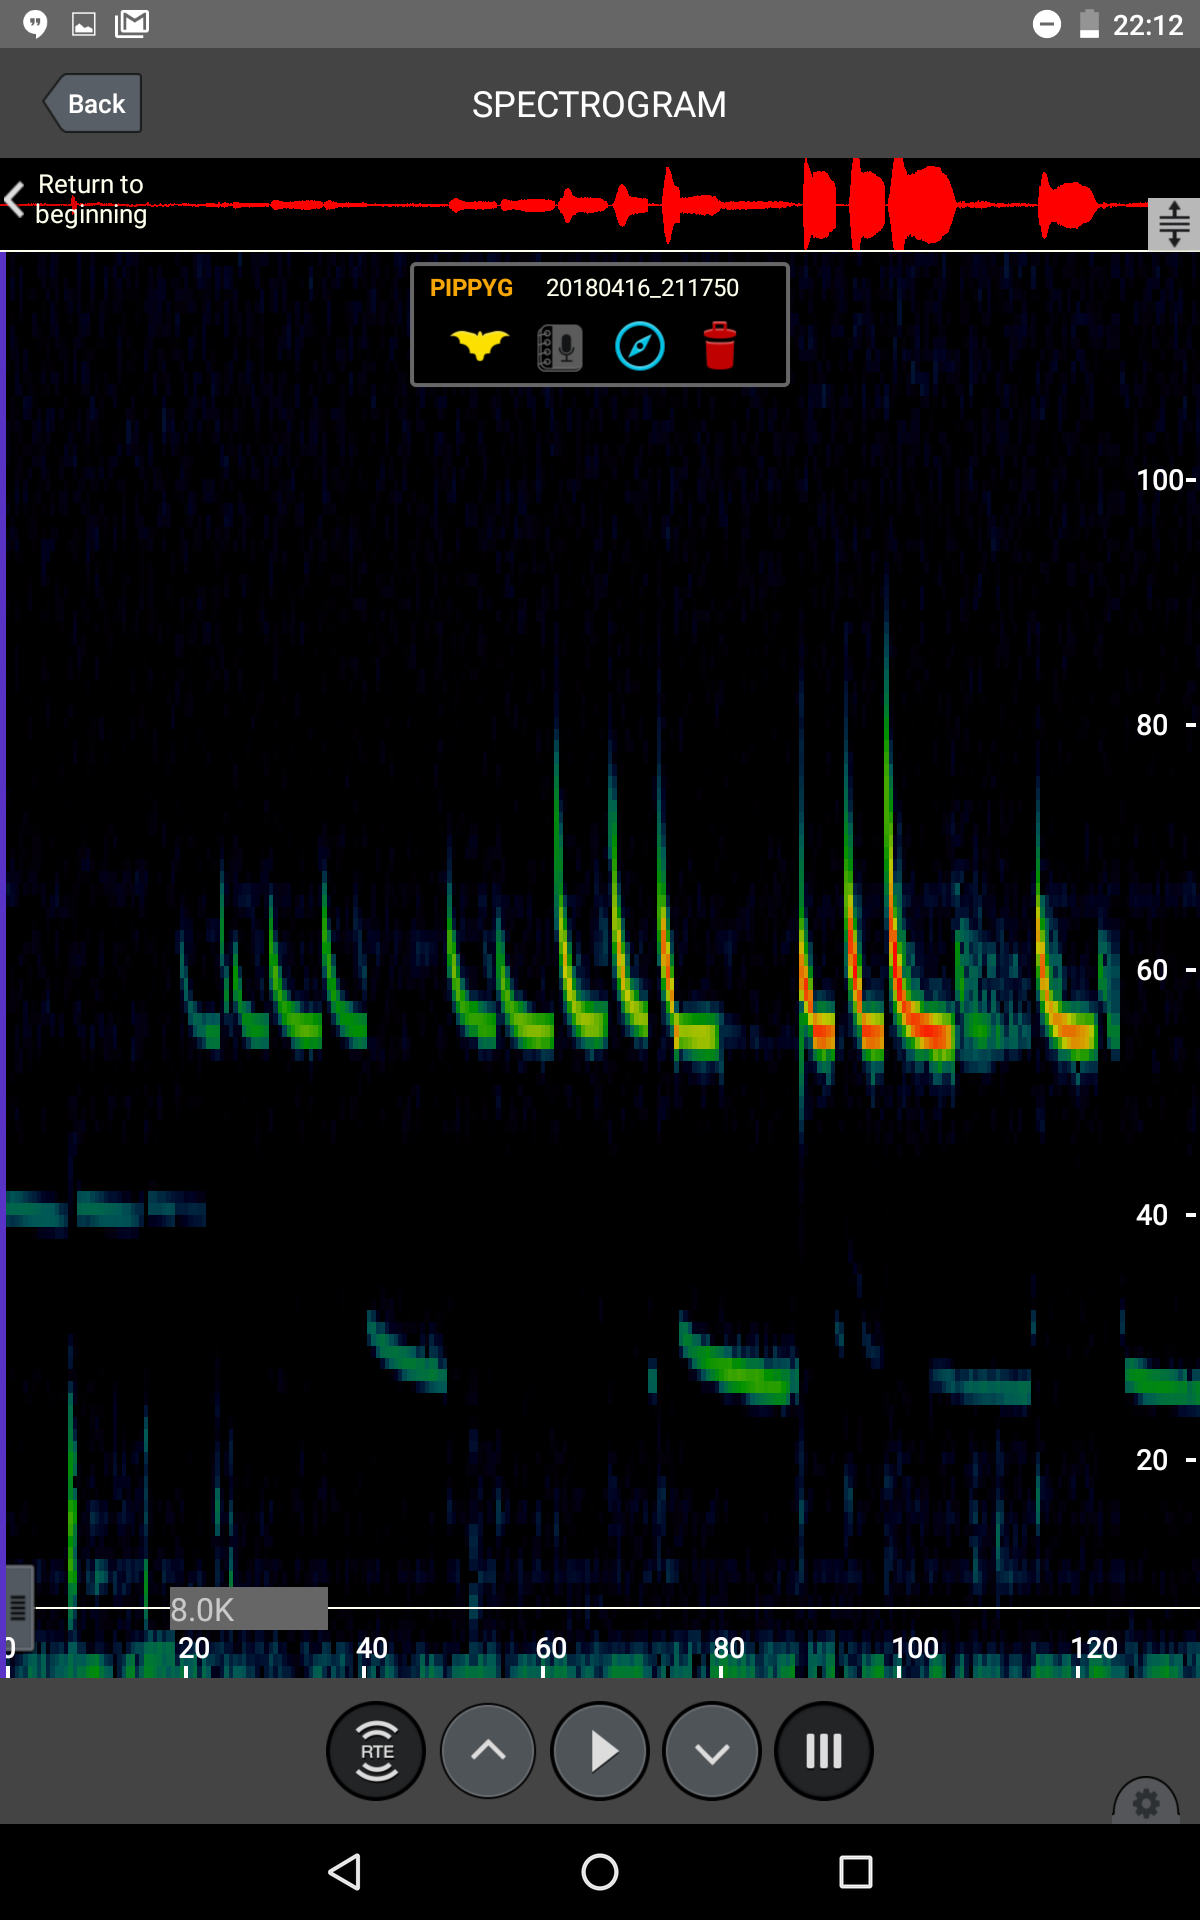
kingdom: Animalia
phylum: Chordata
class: Mammalia
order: Chiroptera
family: Vespertilionidae
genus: Pipistrellus
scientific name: Pipistrellus pygmaeus
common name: Soprano pipistrelle
